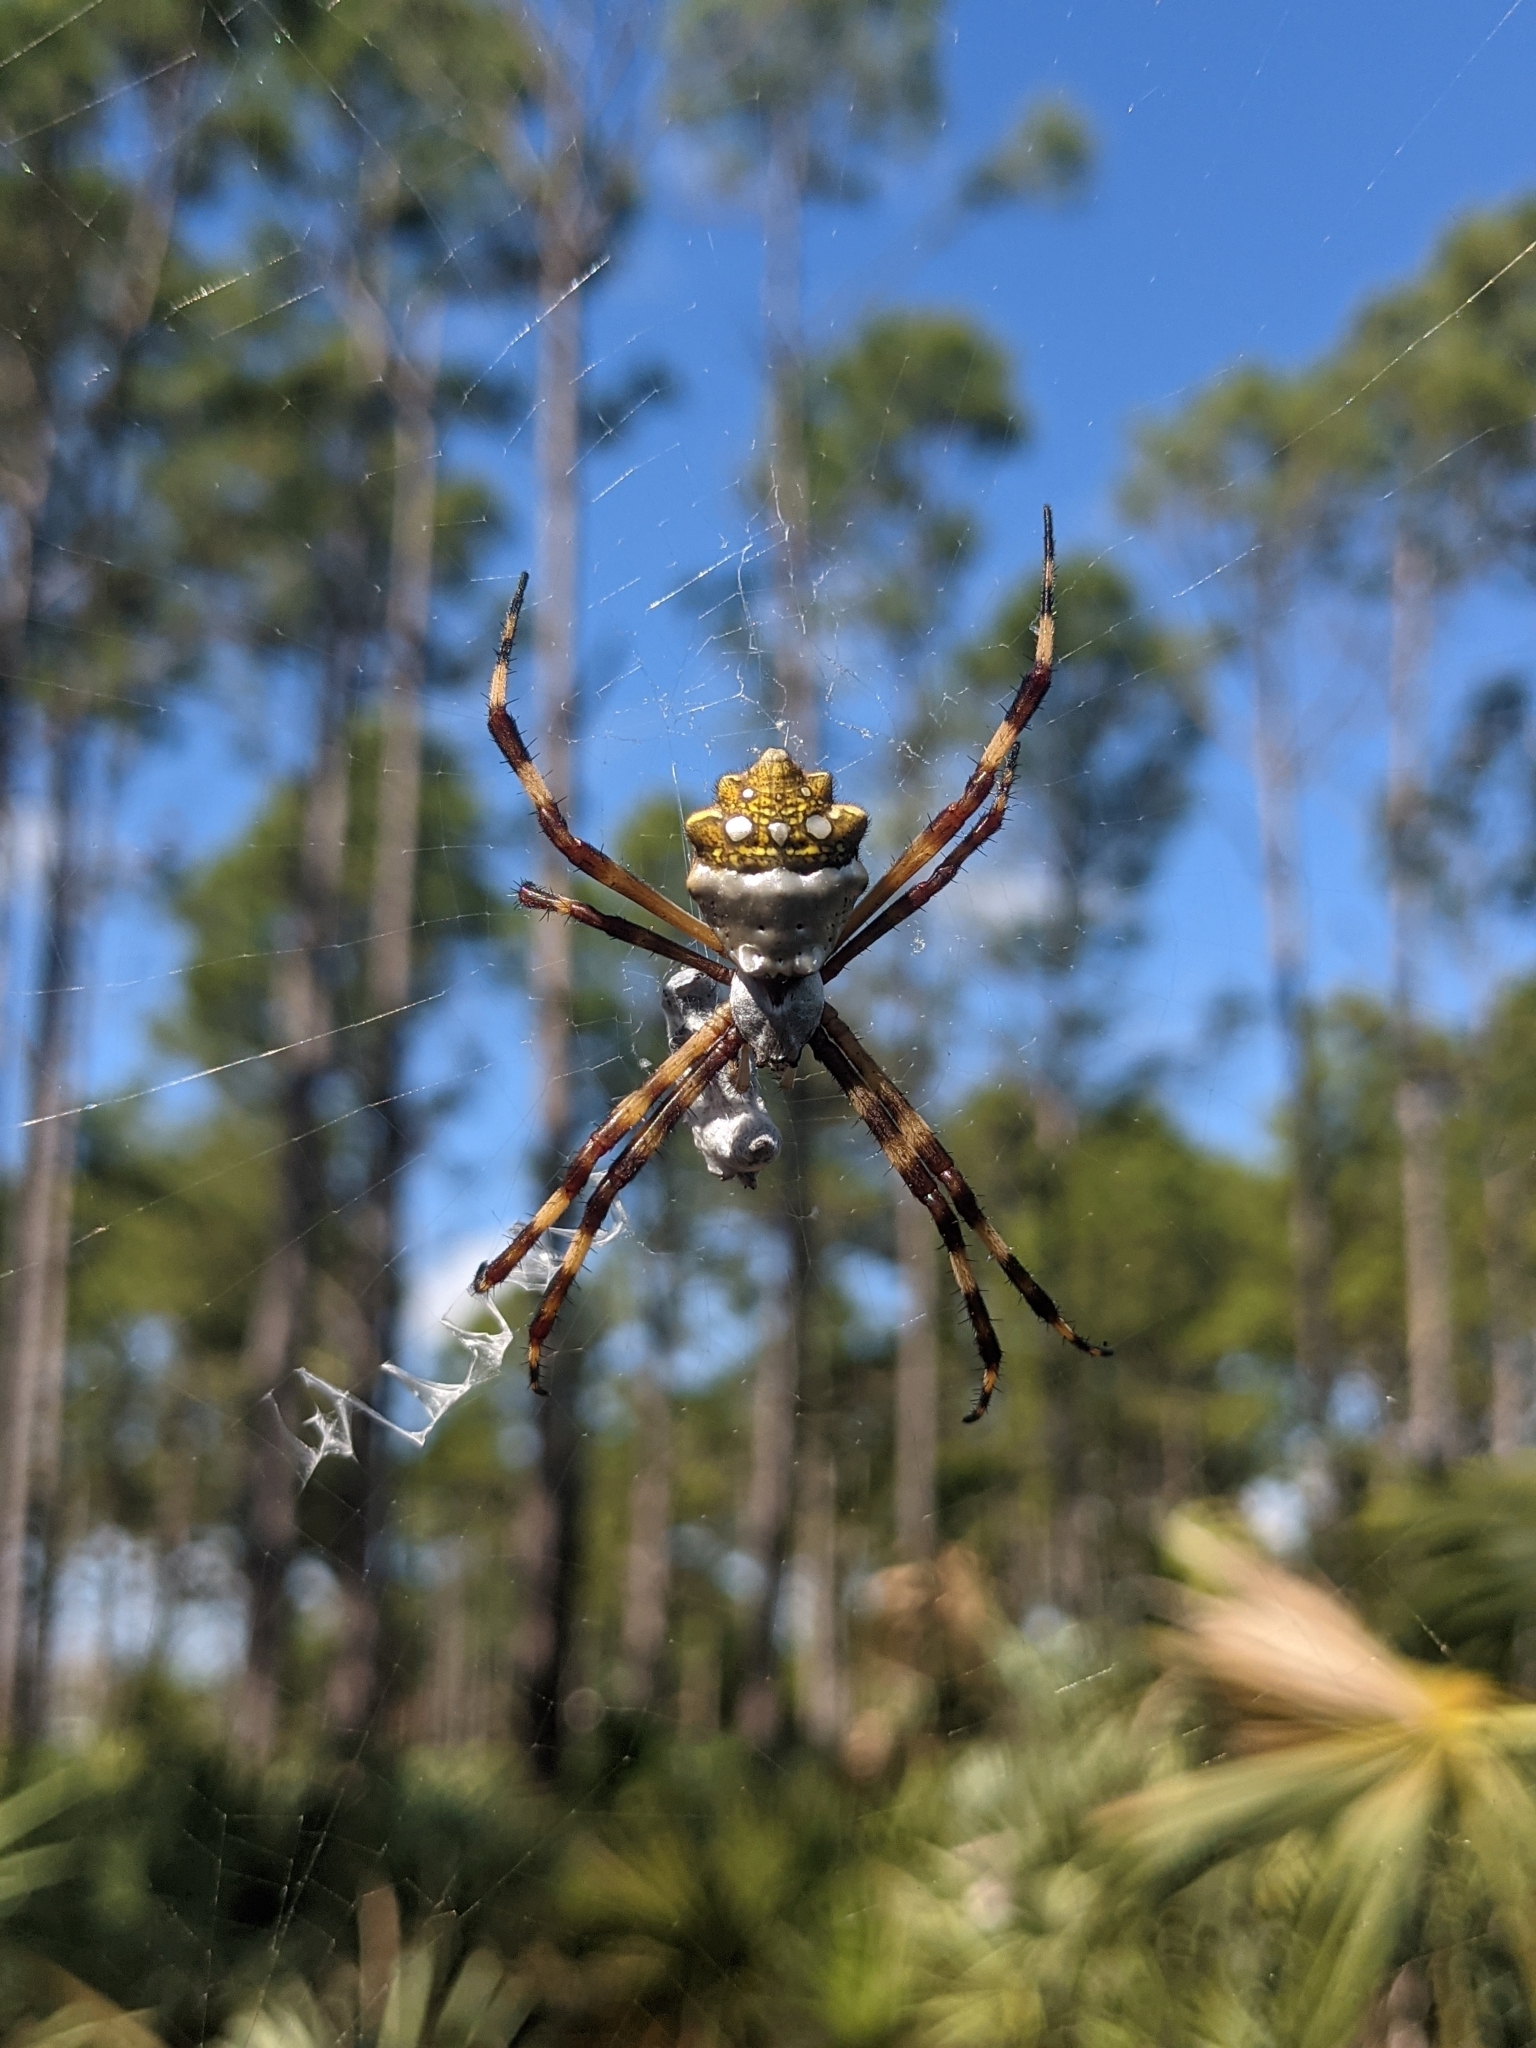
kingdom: Animalia
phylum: Arthropoda
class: Arachnida
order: Araneae
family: Araneidae
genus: Argiope
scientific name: Argiope argentata
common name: Orb weavers
